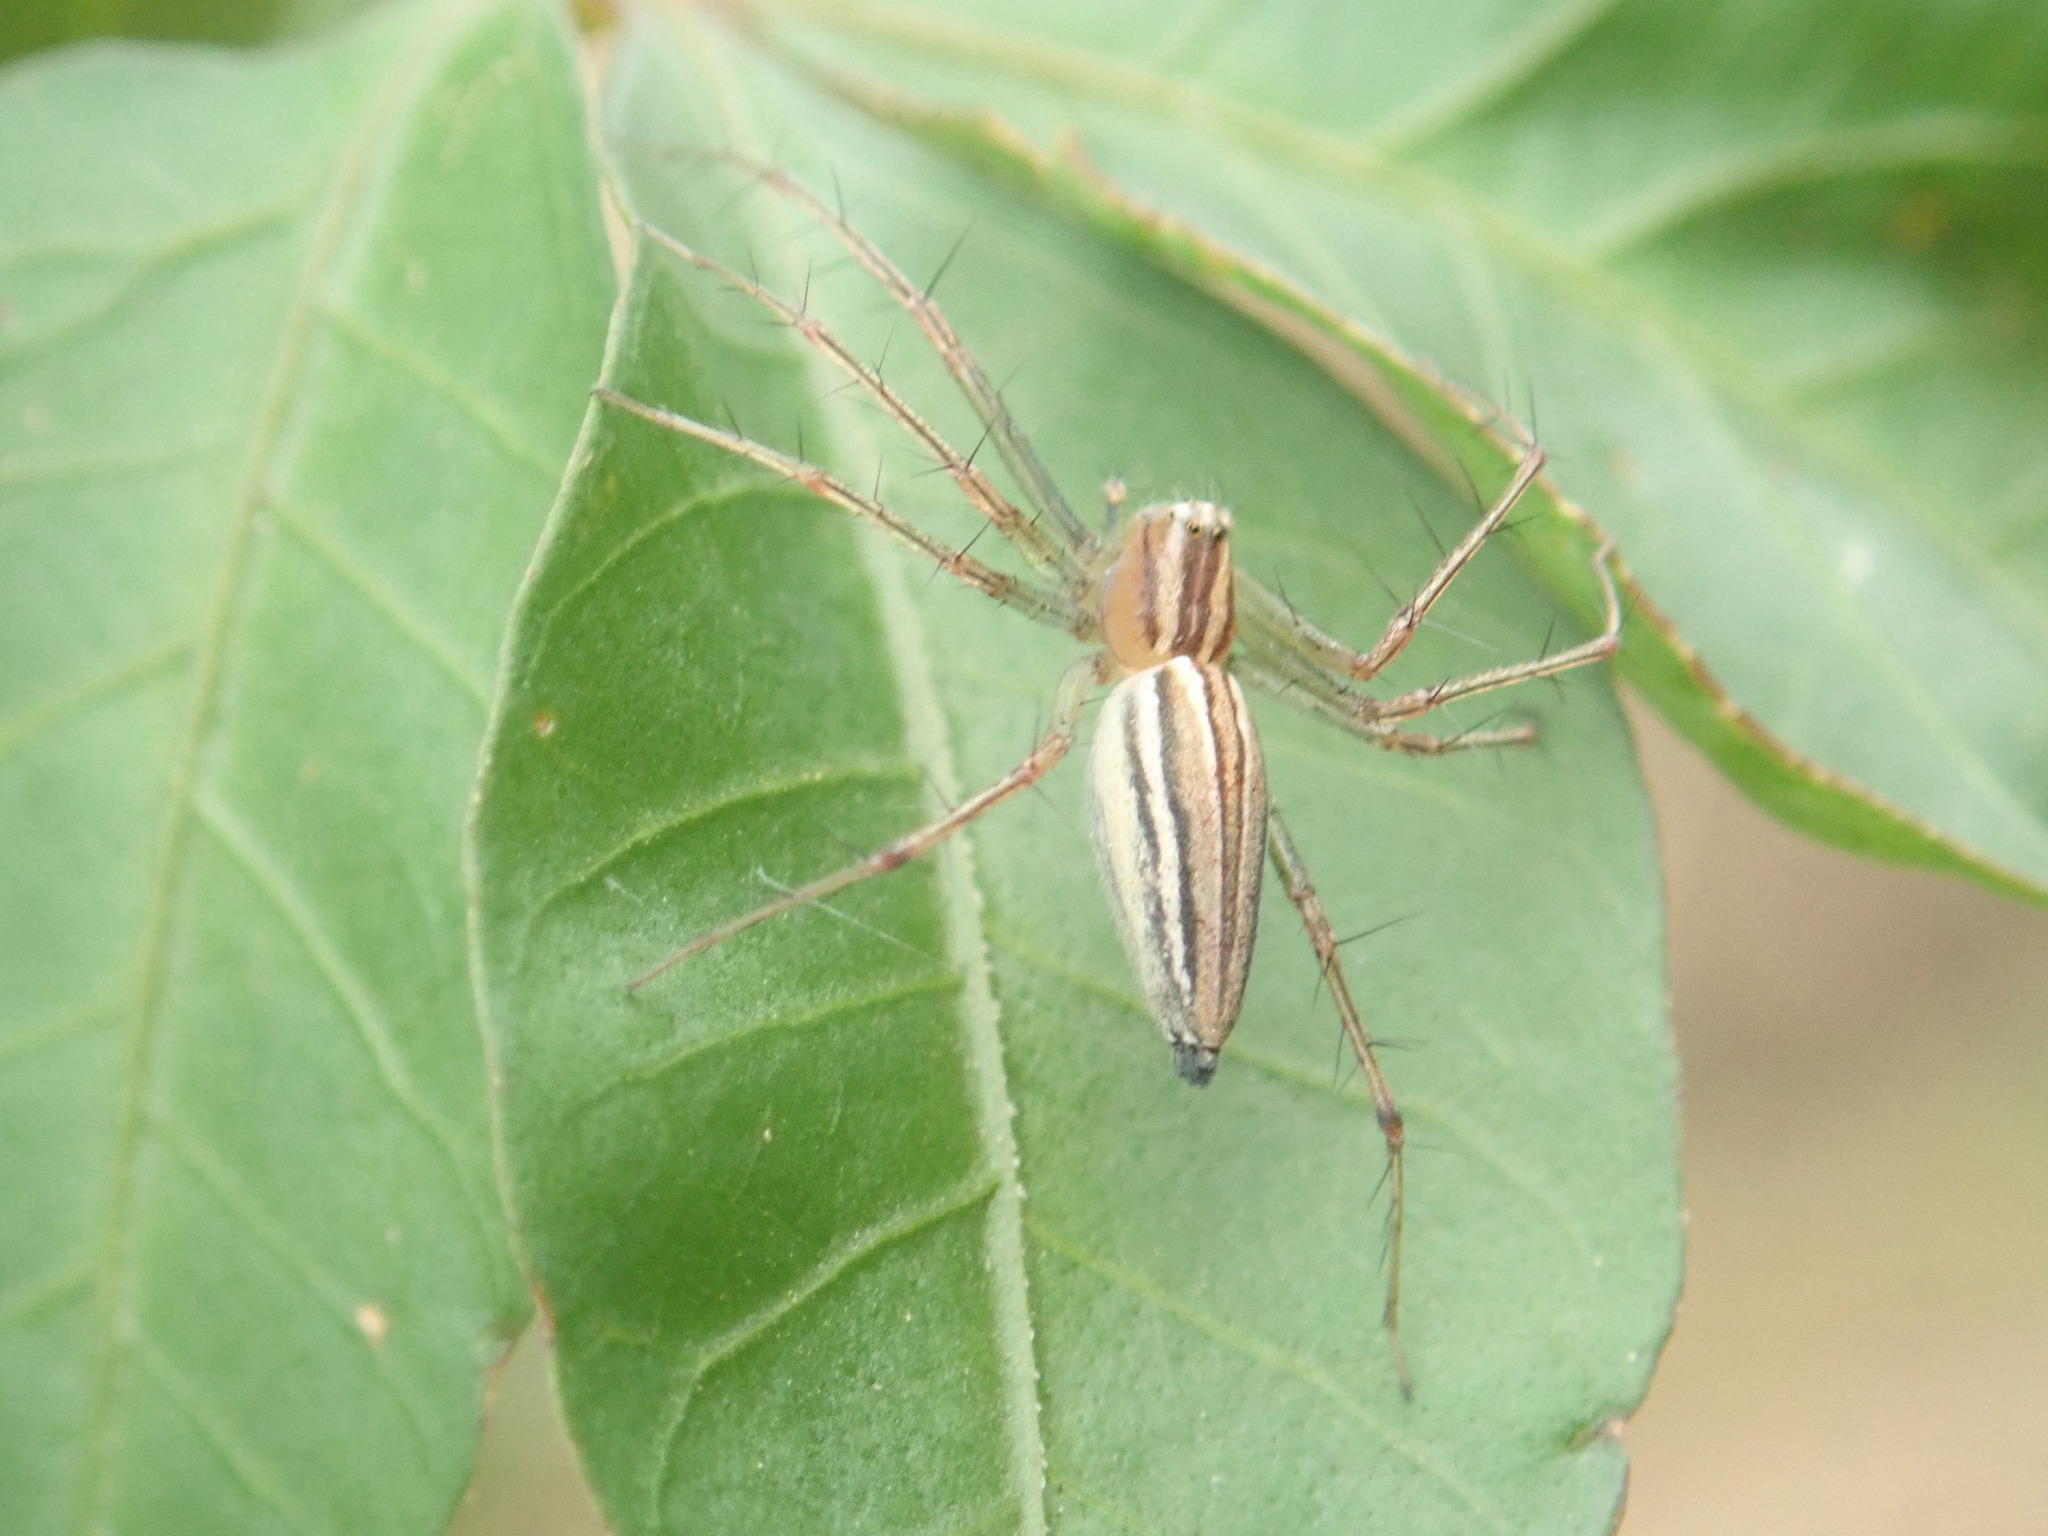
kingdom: Animalia
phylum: Arthropoda
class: Arachnida
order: Araneae
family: Oxyopidae
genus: Oxyopes
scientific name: Oxyopes macilentus
